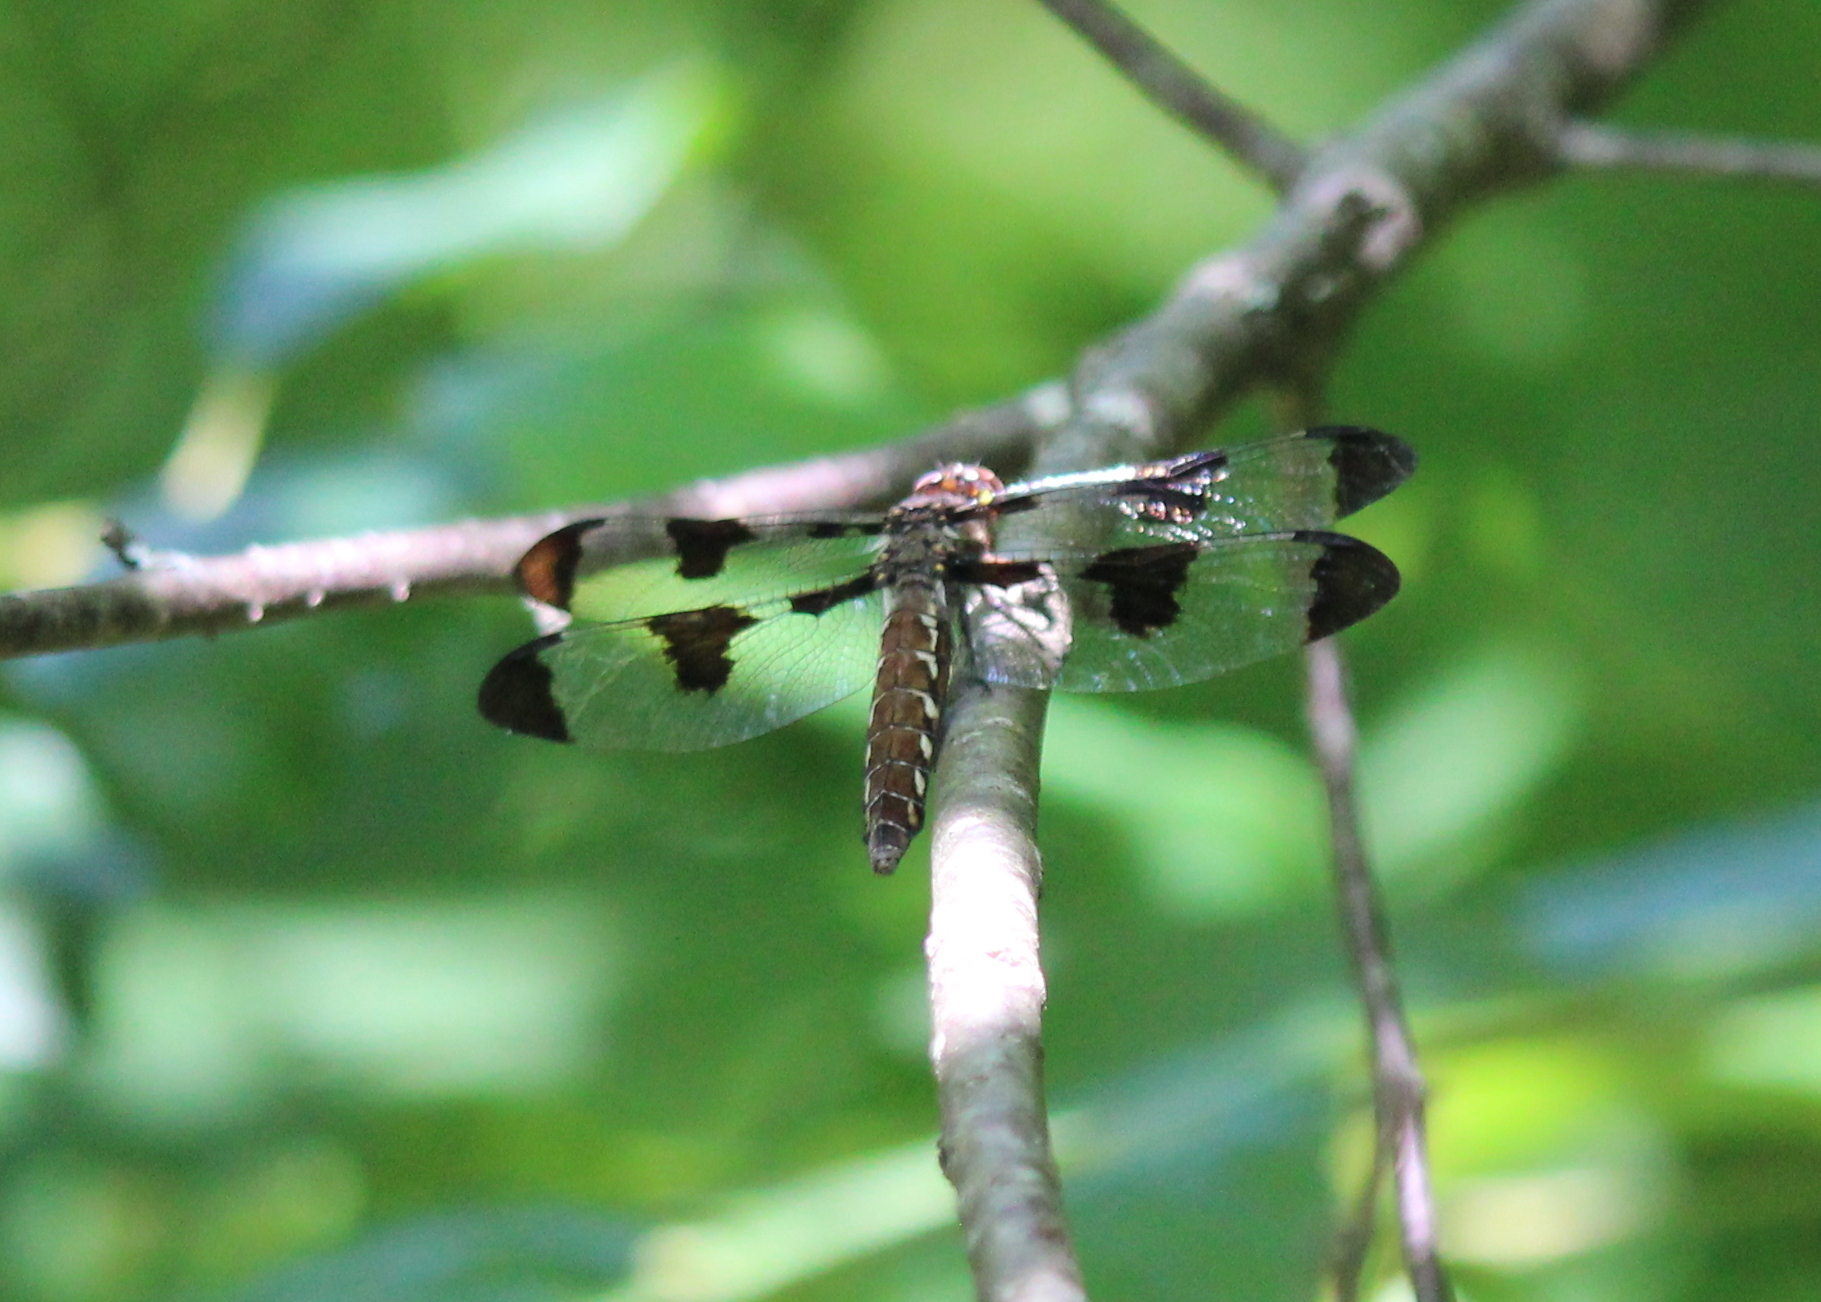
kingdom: Animalia
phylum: Arthropoda
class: Insecta
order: Odonata
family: Libellulidae
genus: Plathemis
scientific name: Plathemis lydia
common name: Common whitetail
